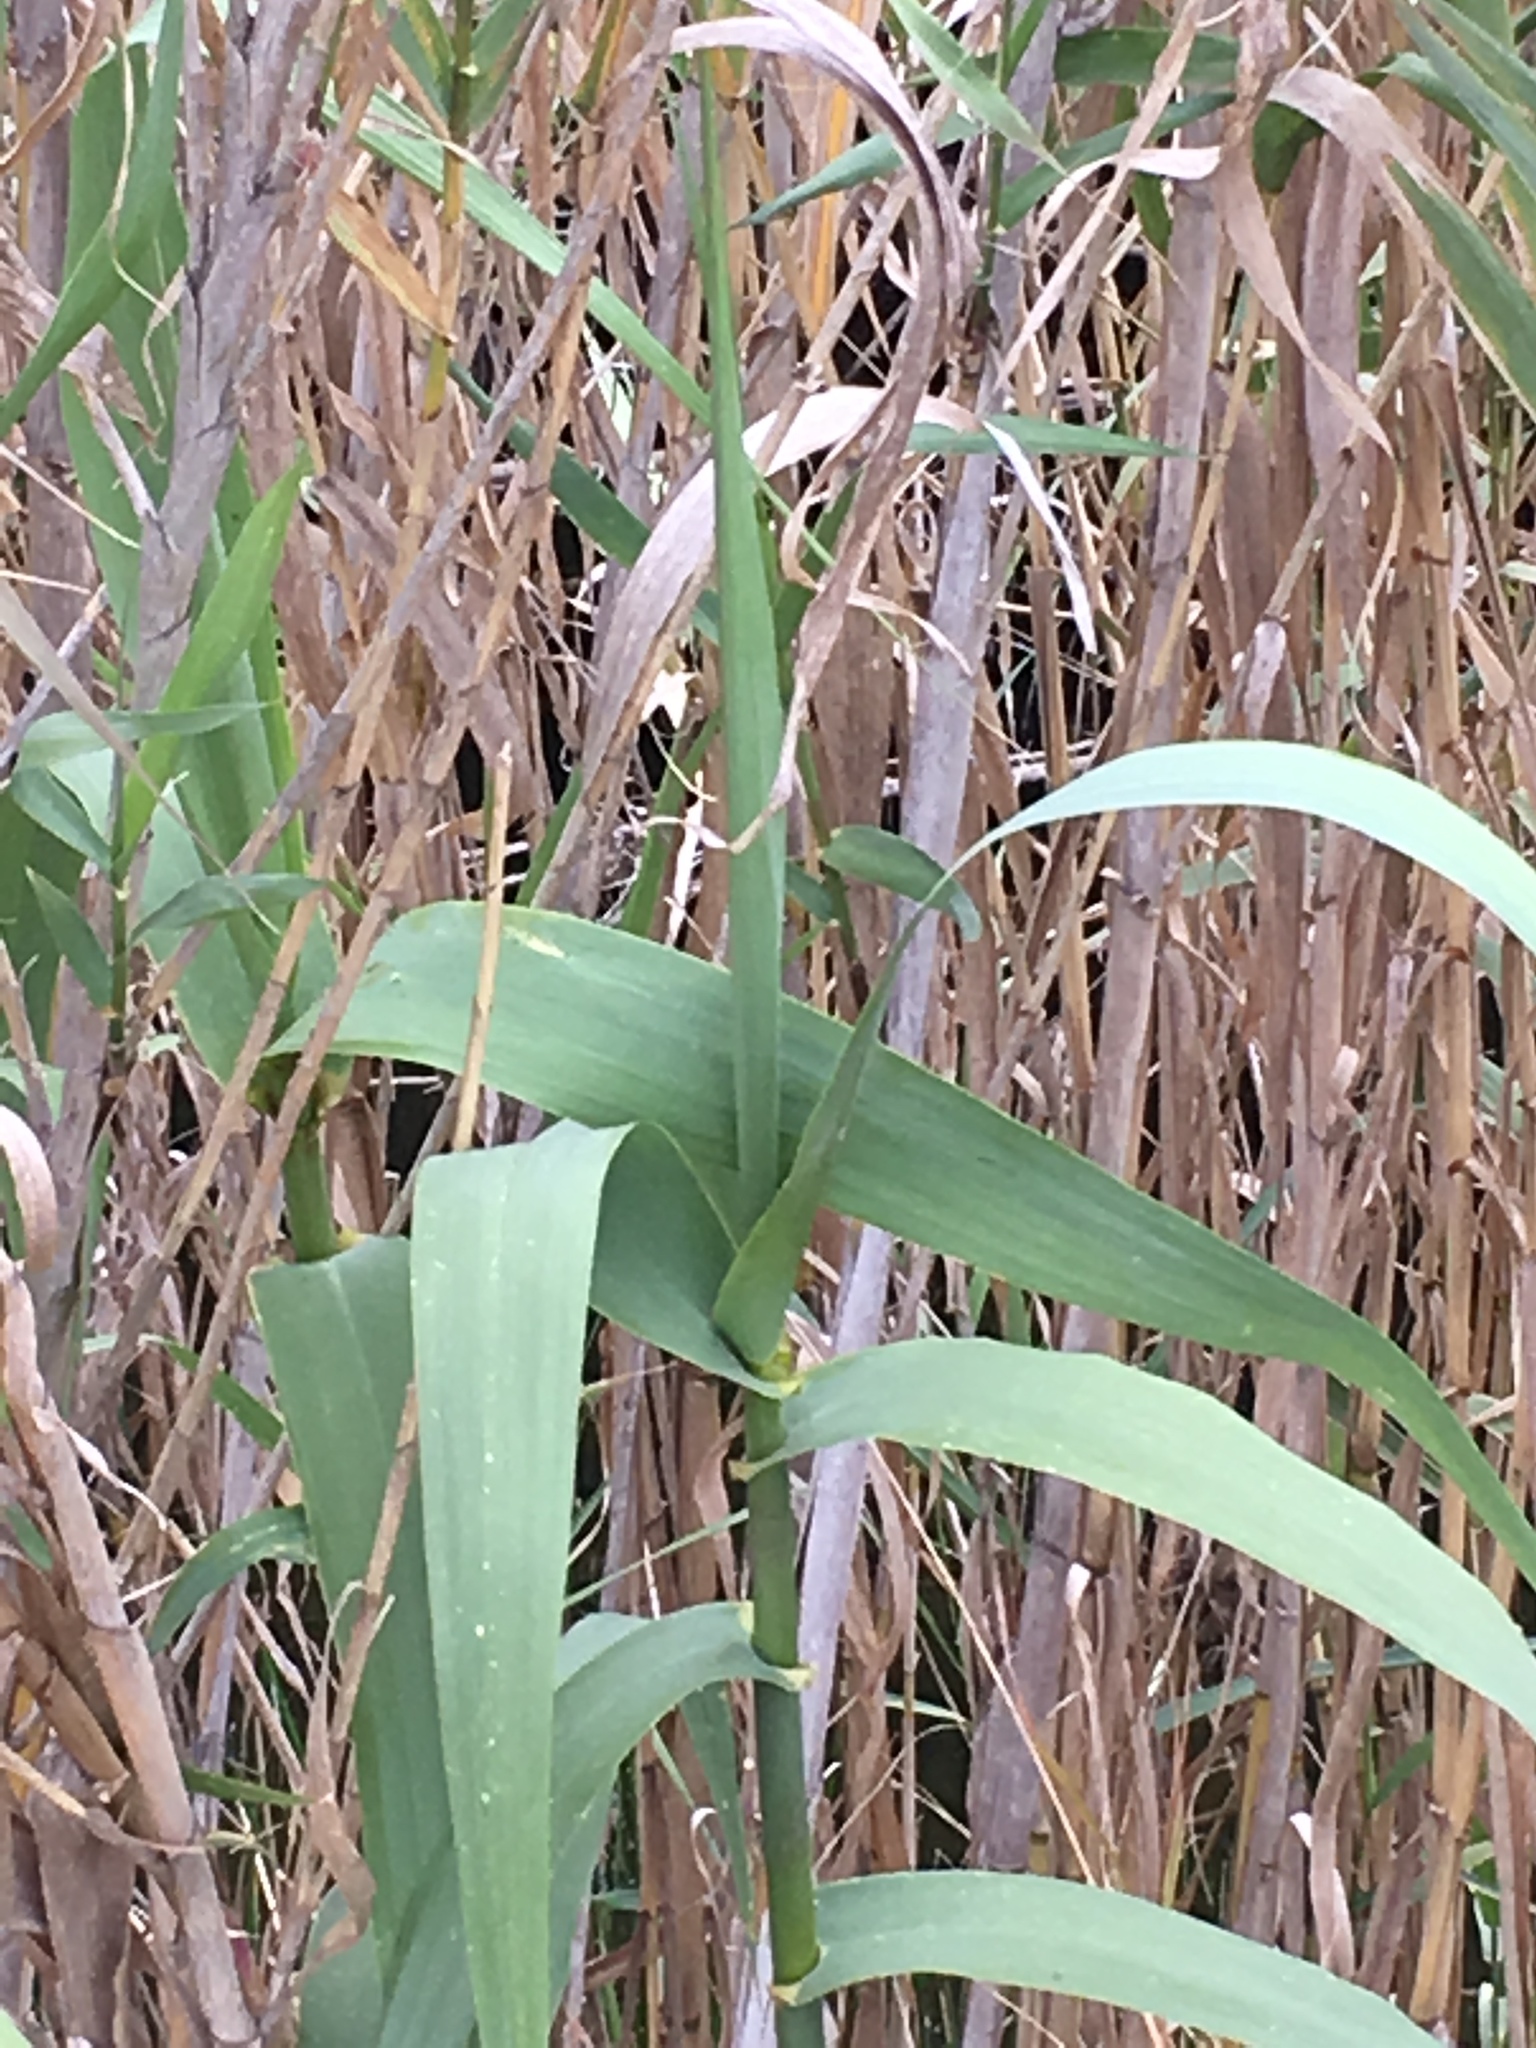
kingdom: Plantae
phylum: Tracheophyta
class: Liliopsida
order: Poales
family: Poaceae
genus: Arundo
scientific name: Arundo donax
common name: Giant reed
